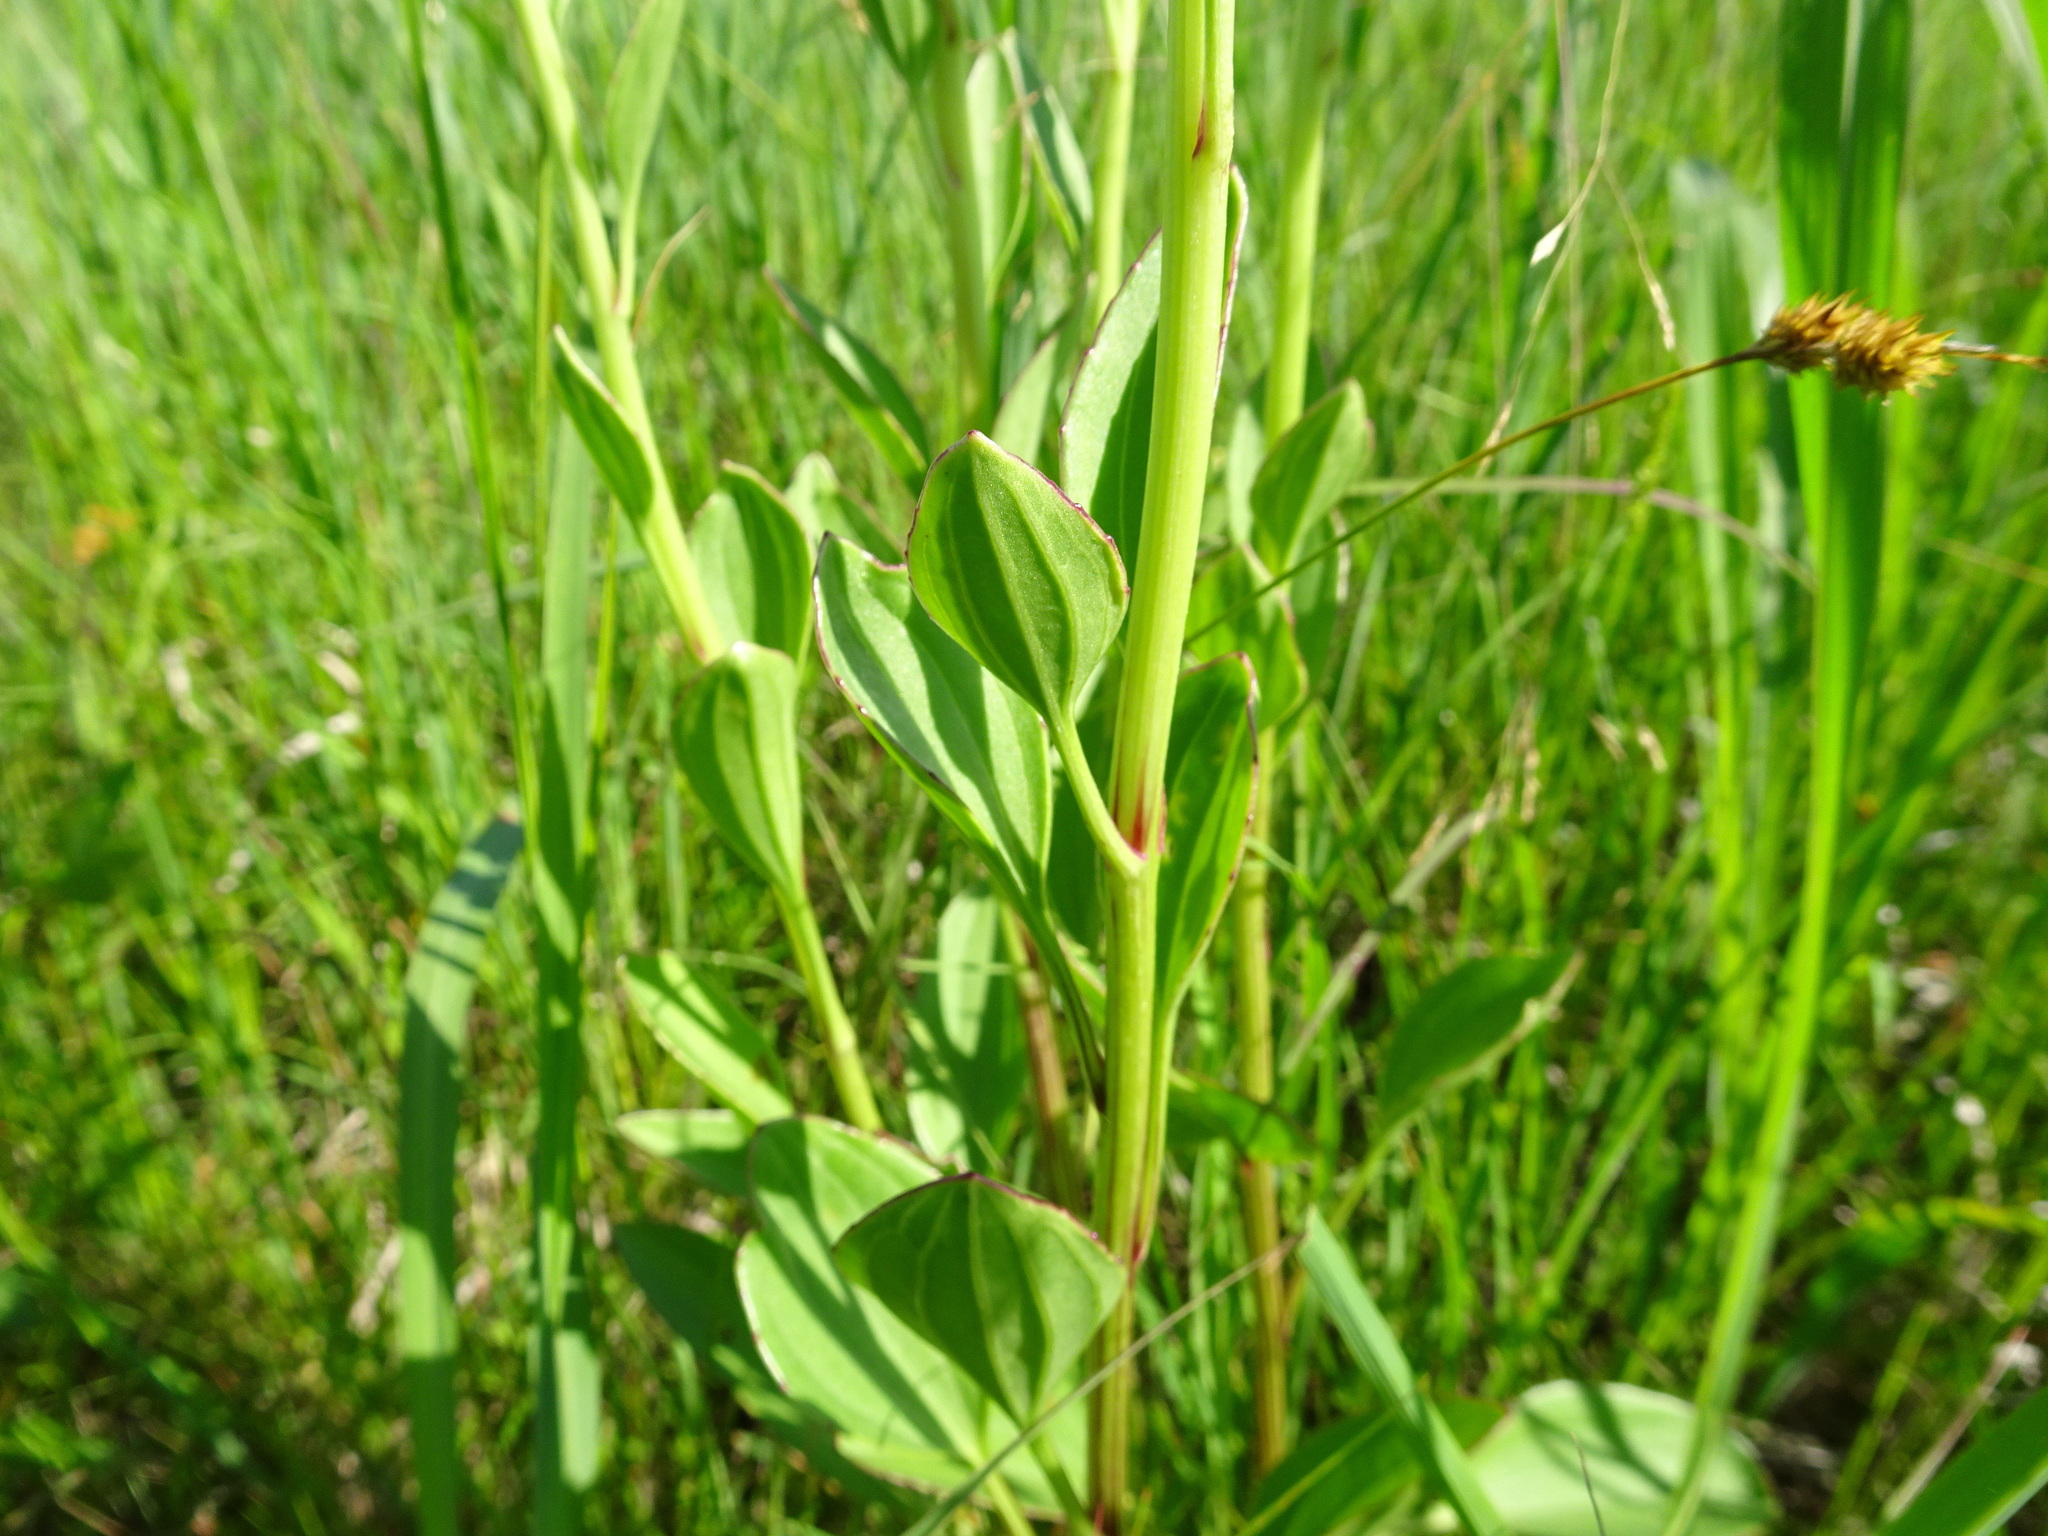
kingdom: Plantae
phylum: Tracheophyta
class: Magnoliopsida
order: Asterales
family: Asteraceae
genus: Arnoglossum
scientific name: Arnoglossum plantagineum
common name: Groove-stemmed indian-plantain
